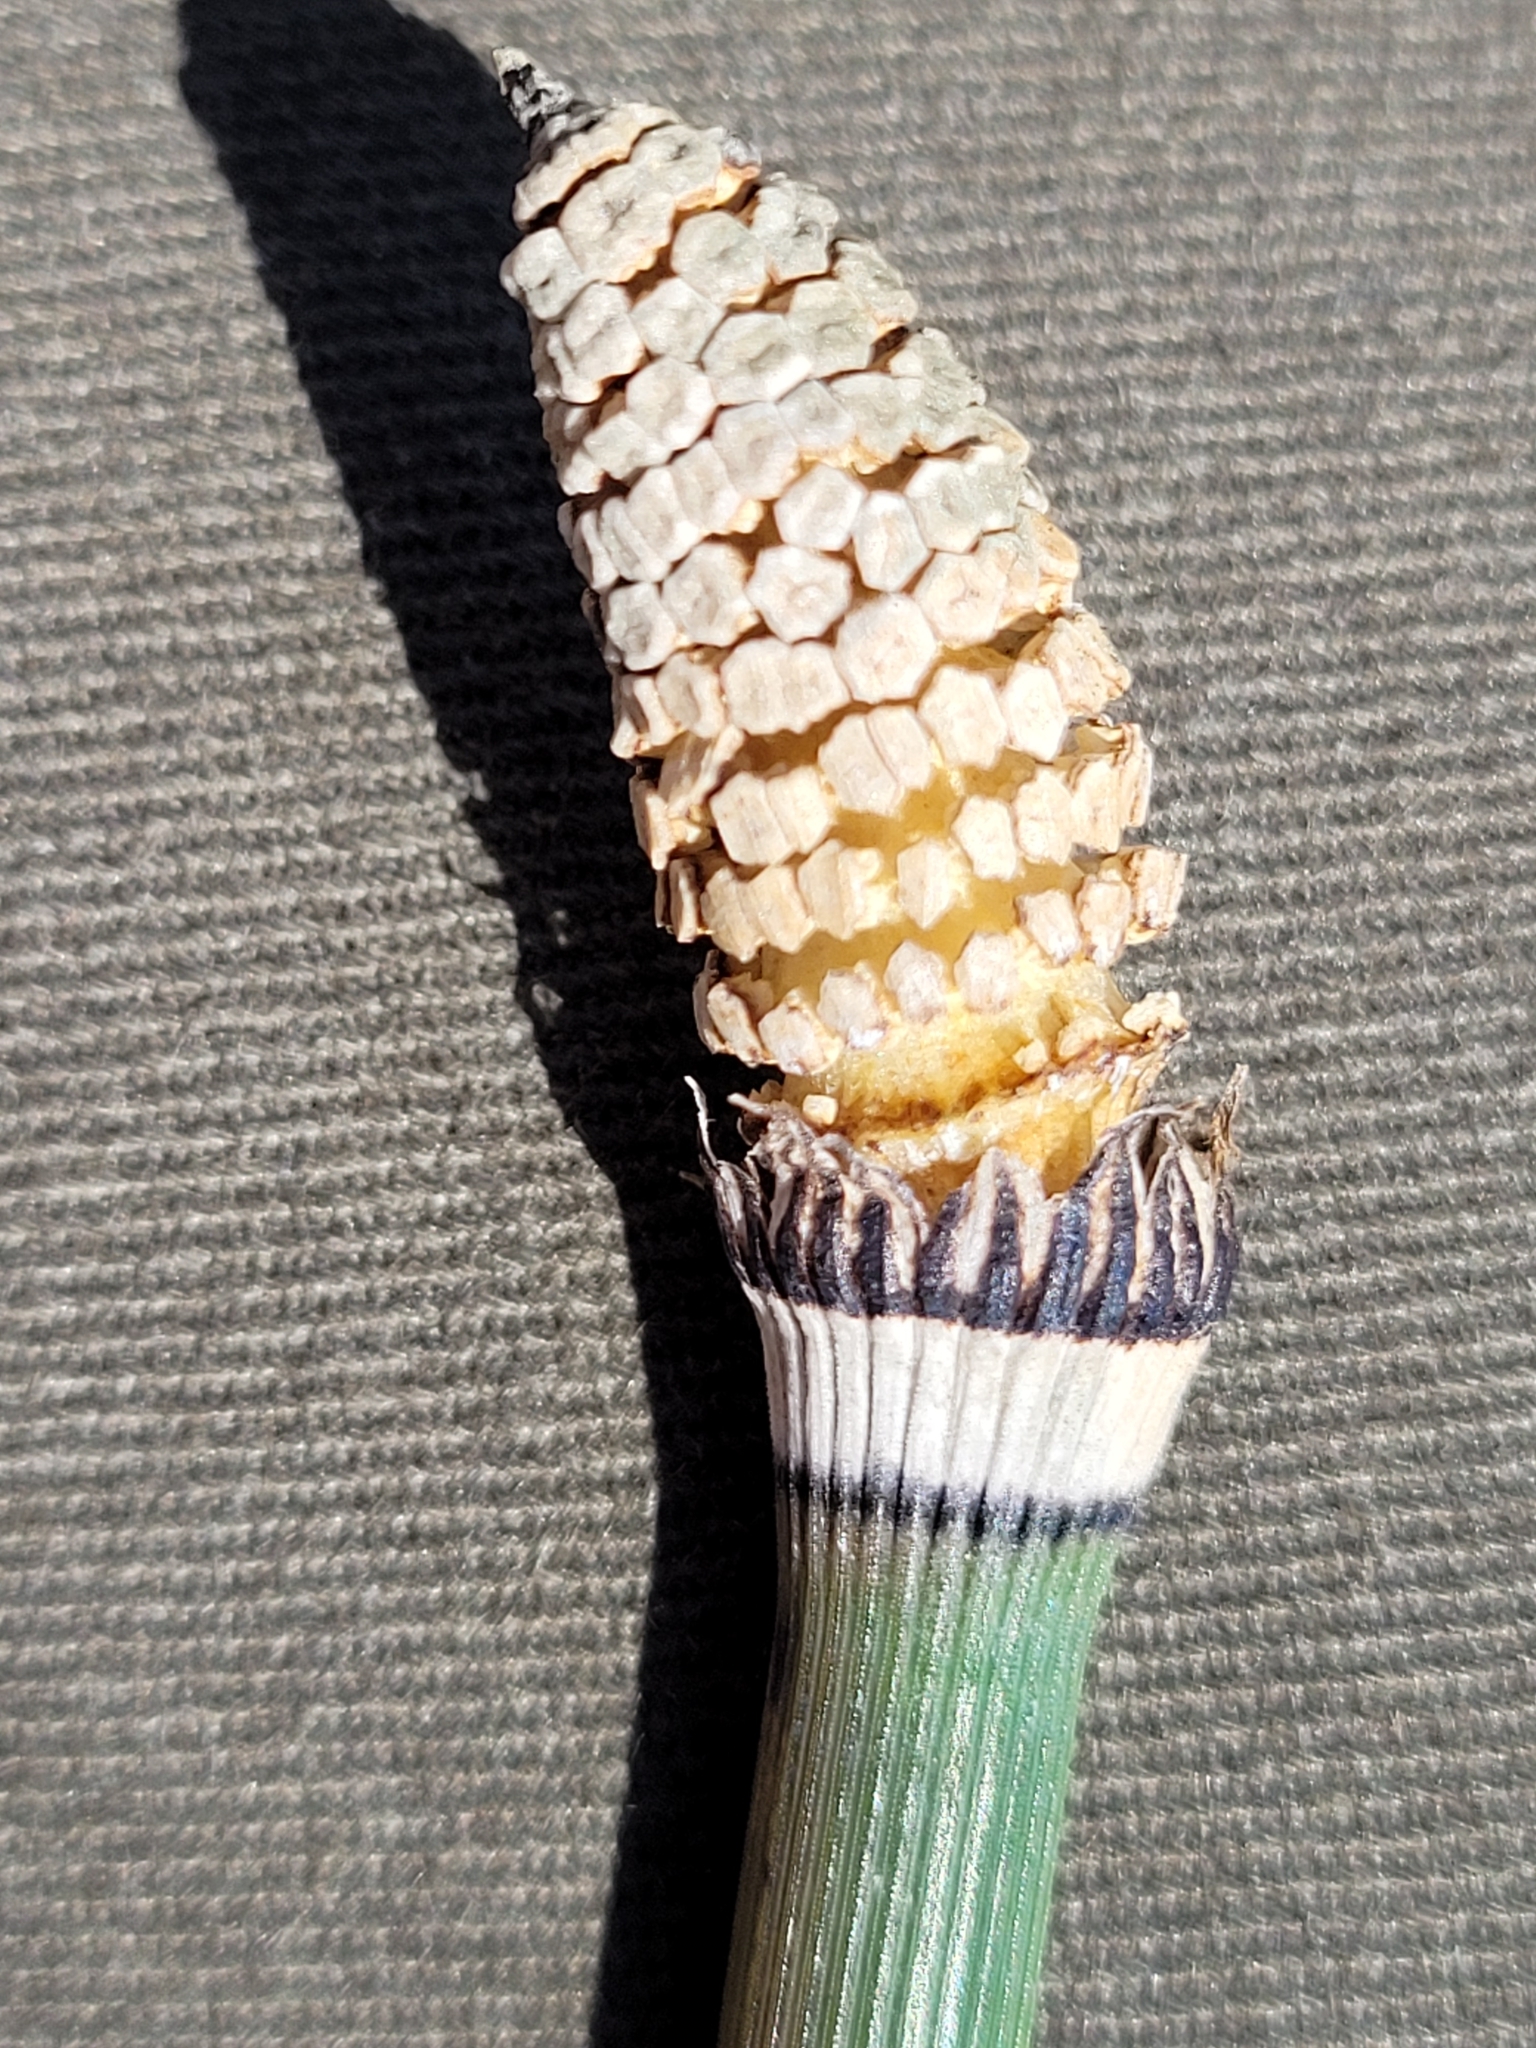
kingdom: Plantae
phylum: Tracheophyta
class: Polypodiopsida
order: Equisetales
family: Equisetaceae
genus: Equisetum
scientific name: Equisetum hyemale
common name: Rough horsetail
